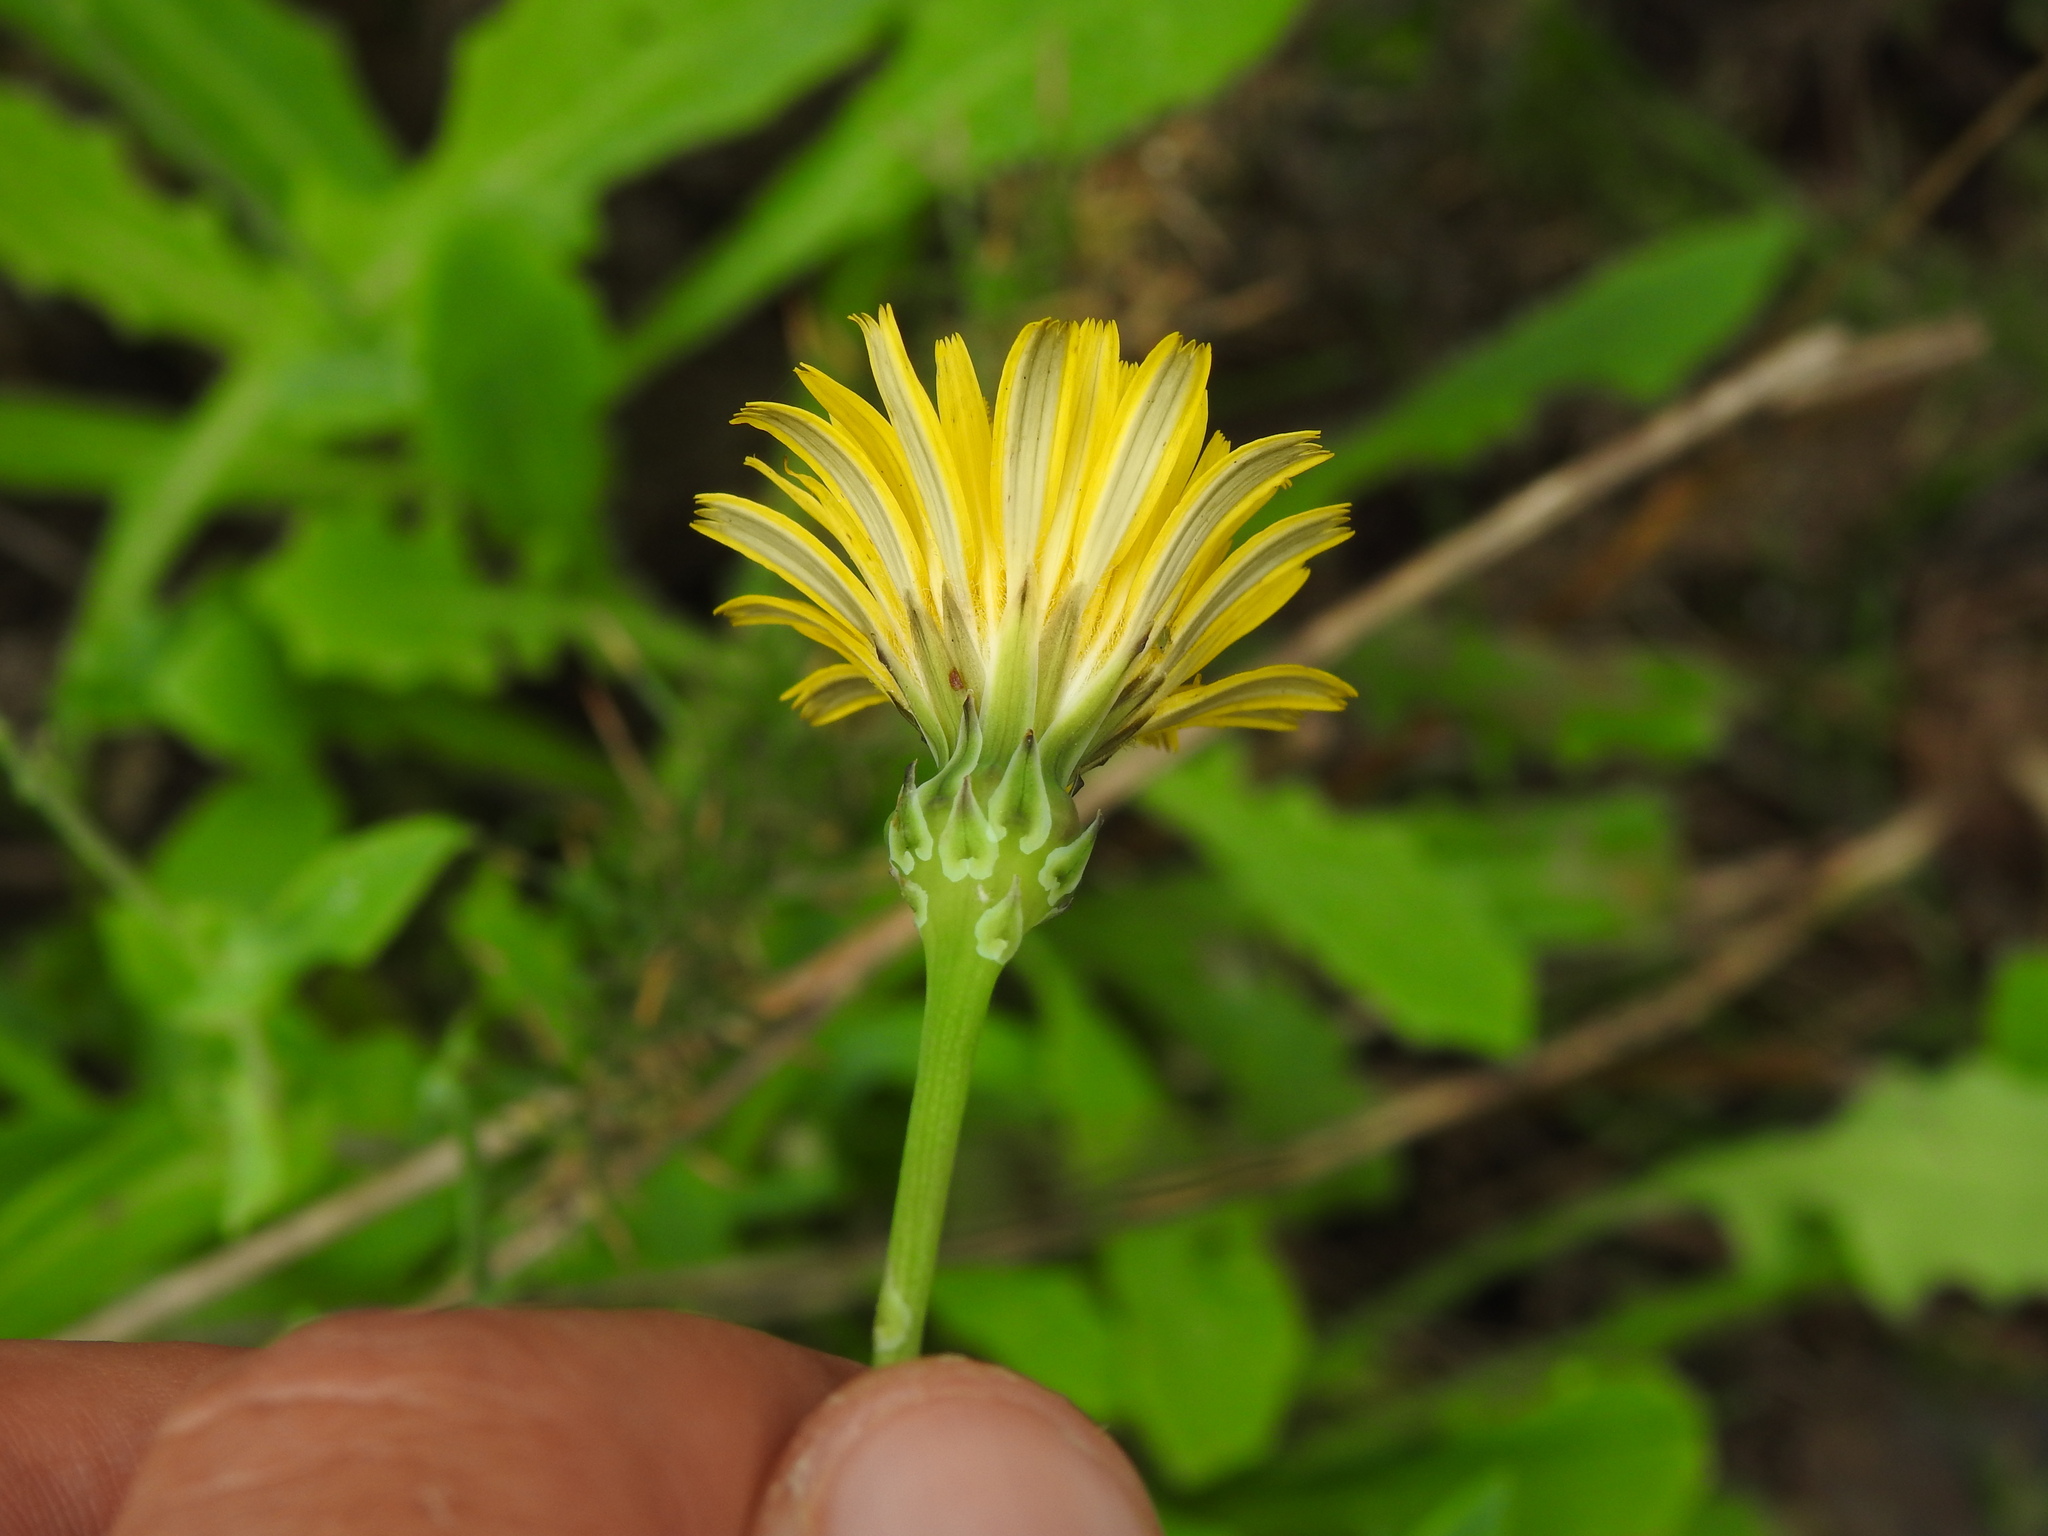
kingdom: Plantae
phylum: Tracheophyta
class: Magnoliopsida
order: Asterales
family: Asteraceae
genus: Reichardia
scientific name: Reichardia picroides
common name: Common brighteyes
